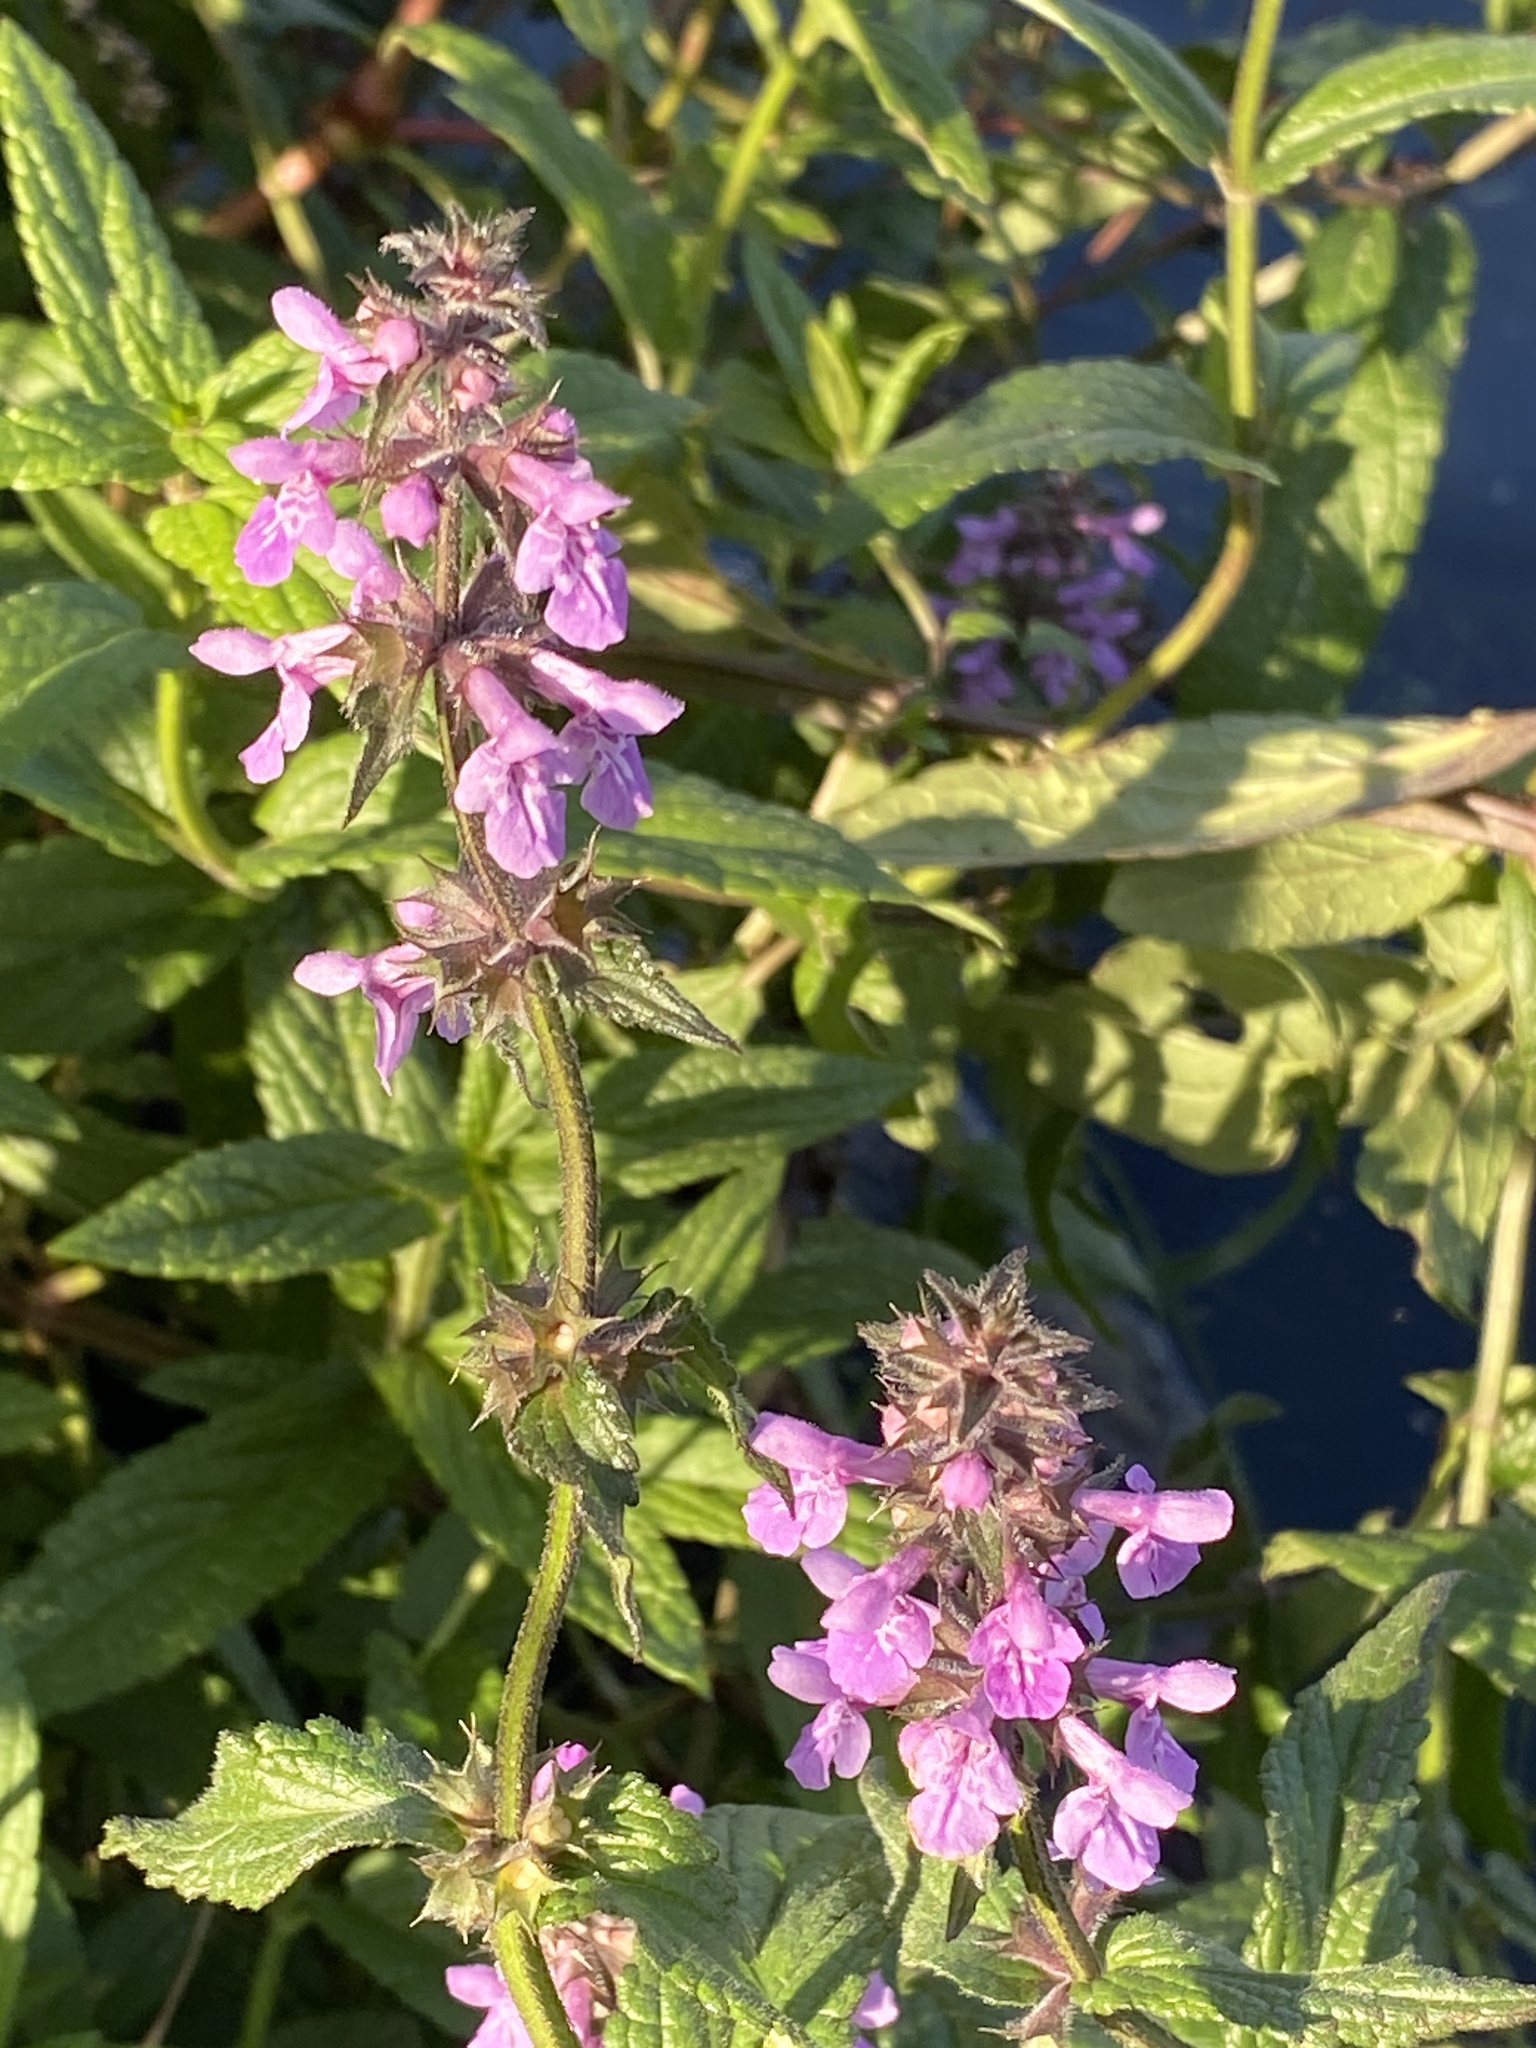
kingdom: Plantae
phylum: Tracheophyta
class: Magnoliopsida
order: Lamiales
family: Lamiaceae
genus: Stachys
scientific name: Stachys palustris
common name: Marsh woundwort
